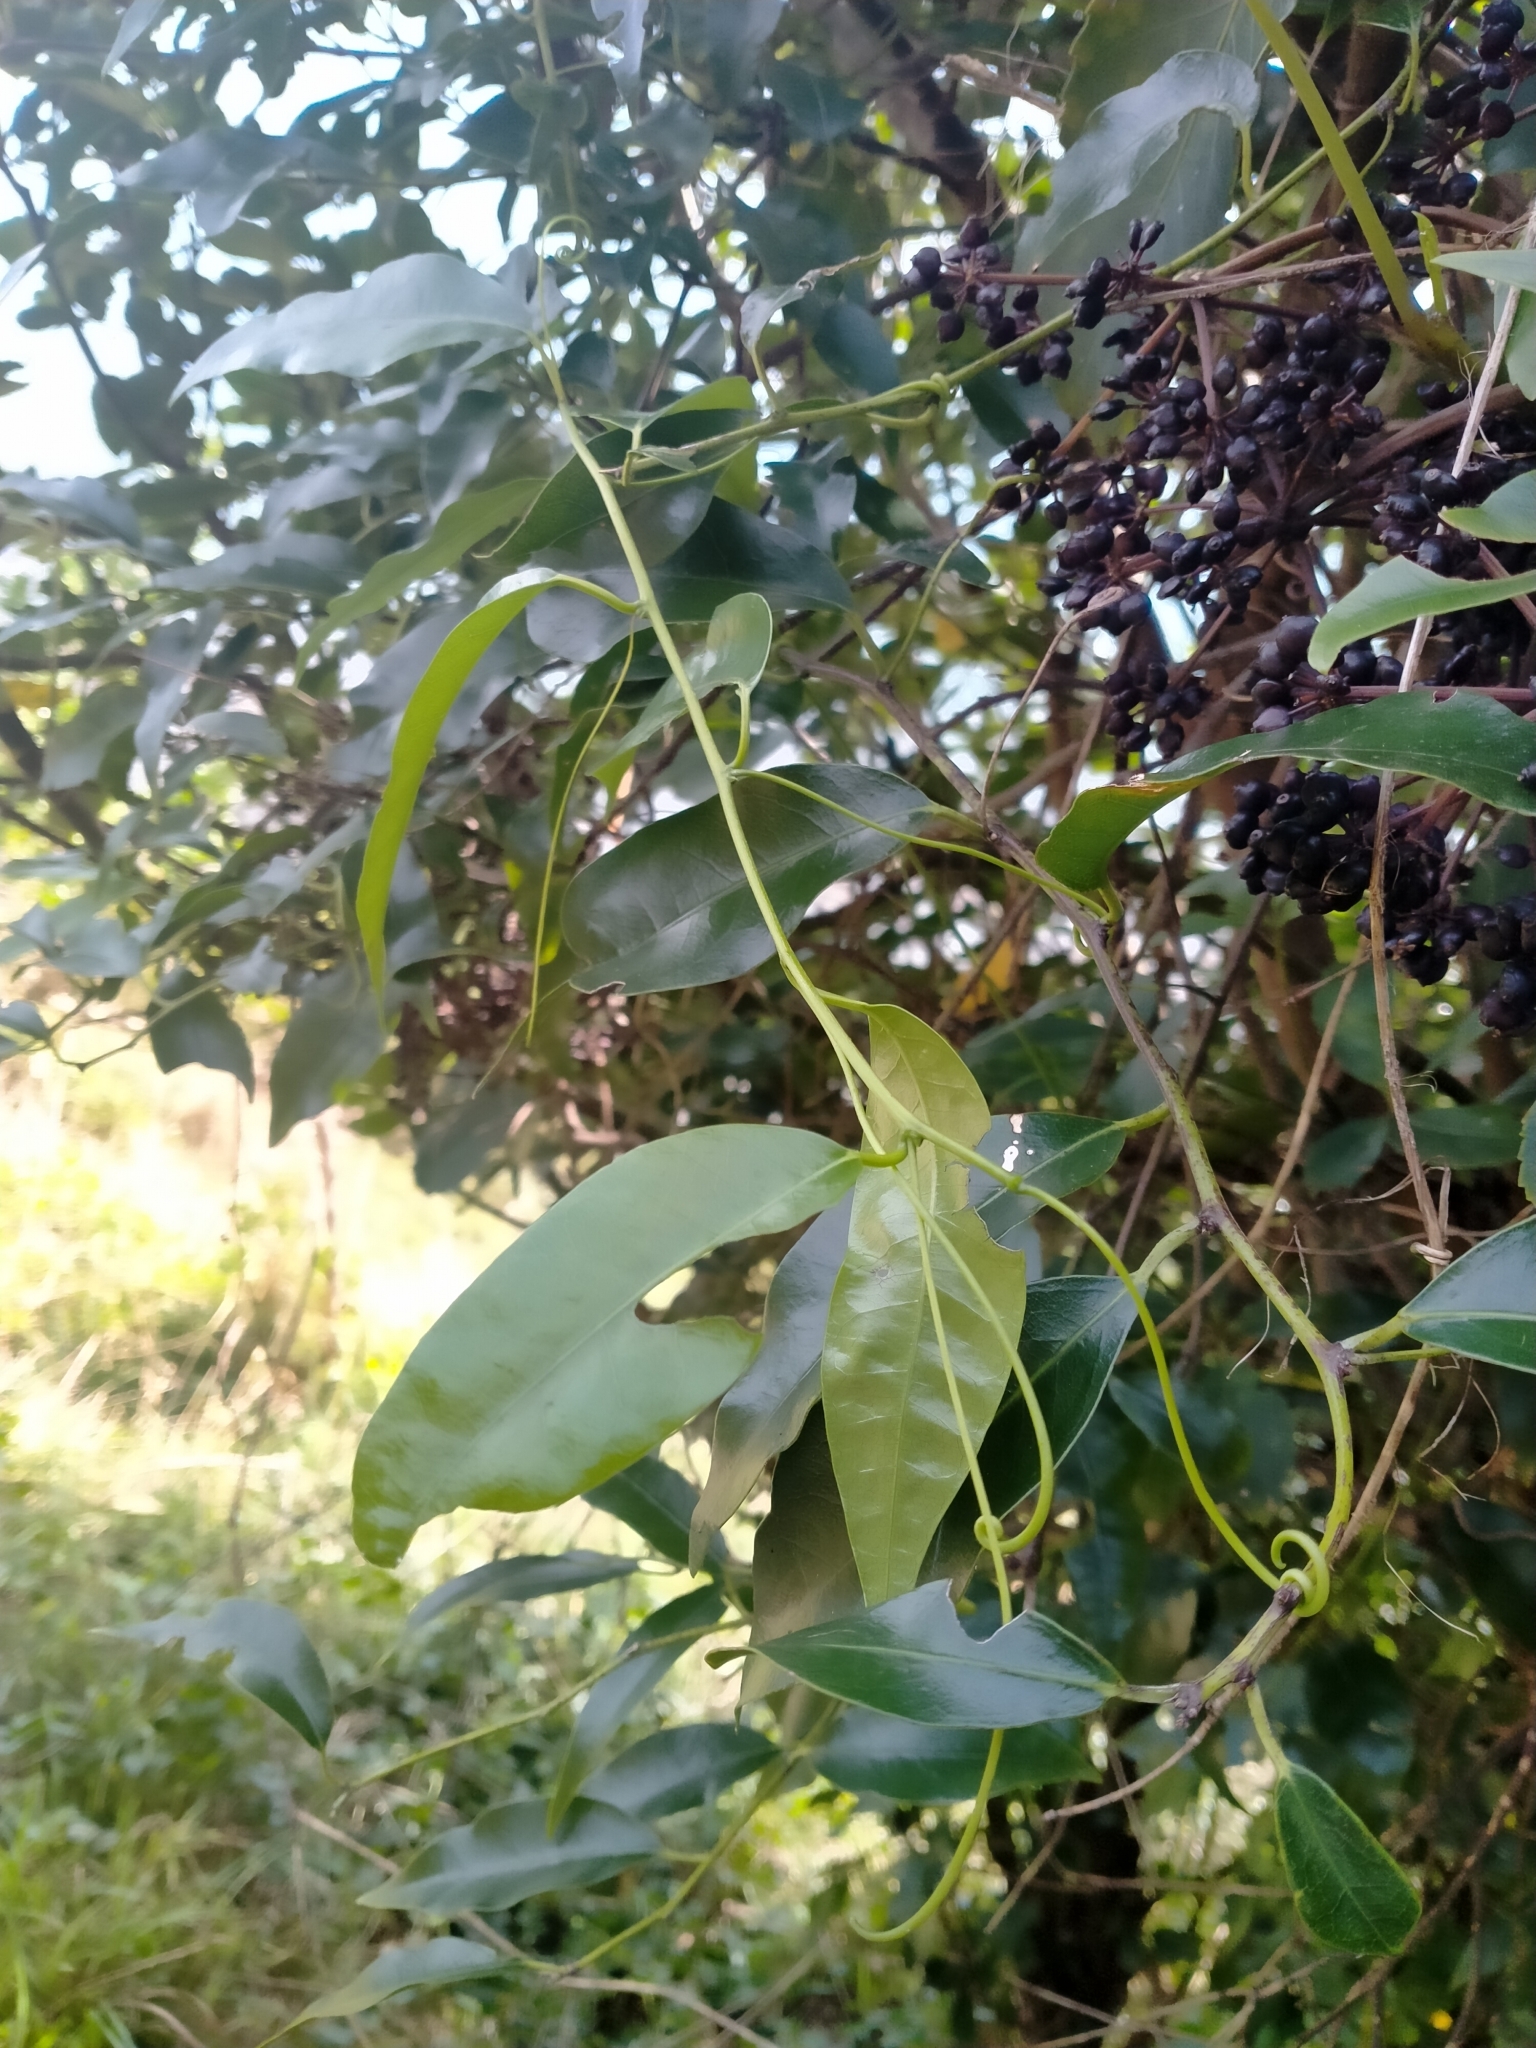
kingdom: Plantae
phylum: Tracheophyta
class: Magnoliopsida
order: Malpighiales
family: Passifloraceae
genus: Passiflora
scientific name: Passiflora tetrandra
